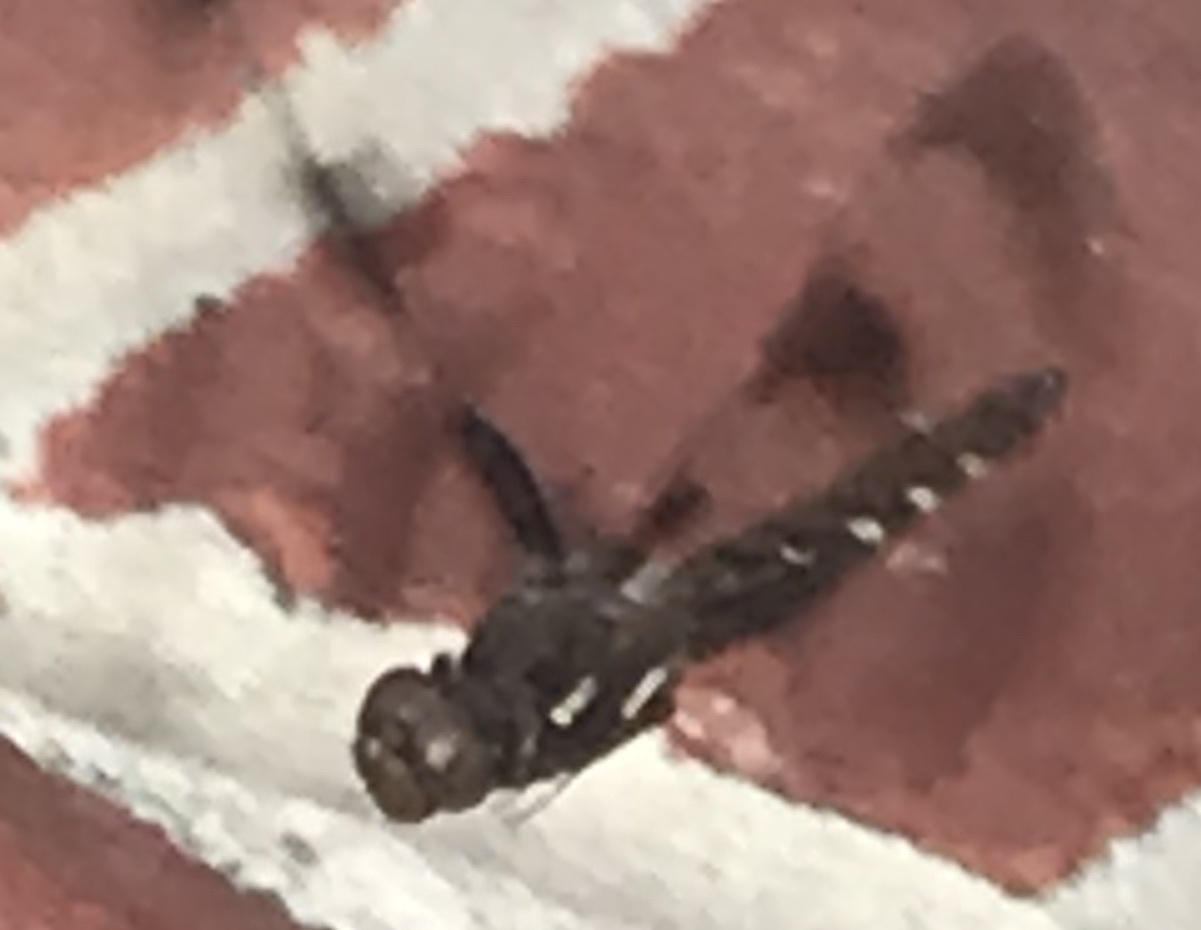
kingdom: Animalia
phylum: Arthropoda
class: Insecta
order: Odonata
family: Libellulidae
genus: Plathemis
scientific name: Plathemis lydia
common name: Common whitetail
